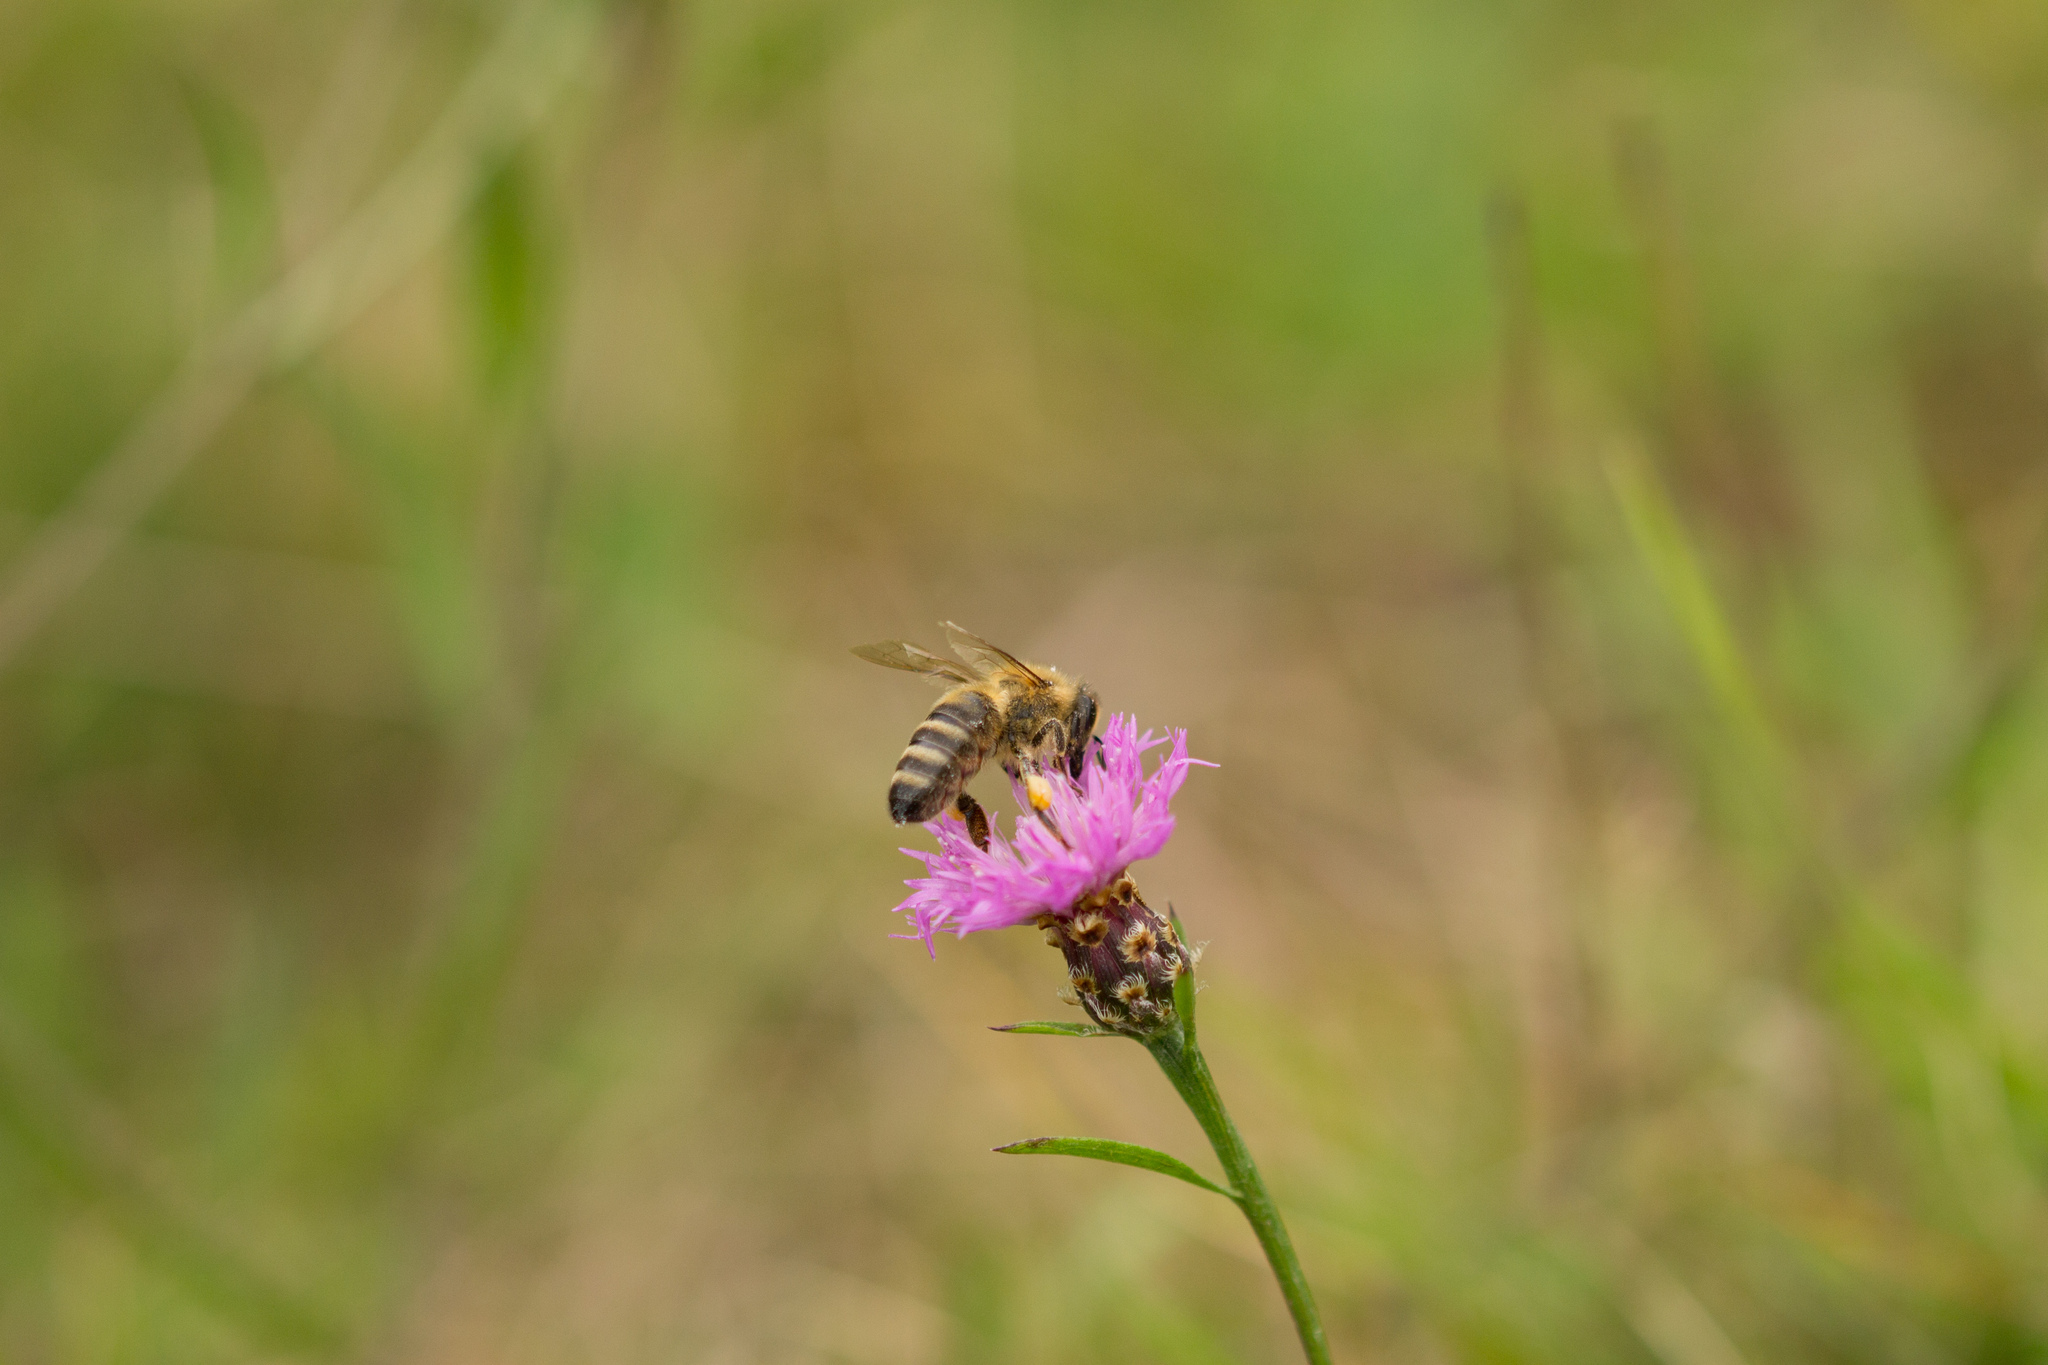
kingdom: Animalia
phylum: Arthropoda
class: Insecta
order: Hymenoptera
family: Apidae
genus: Apis
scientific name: Apis mellifera
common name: Honey bee
